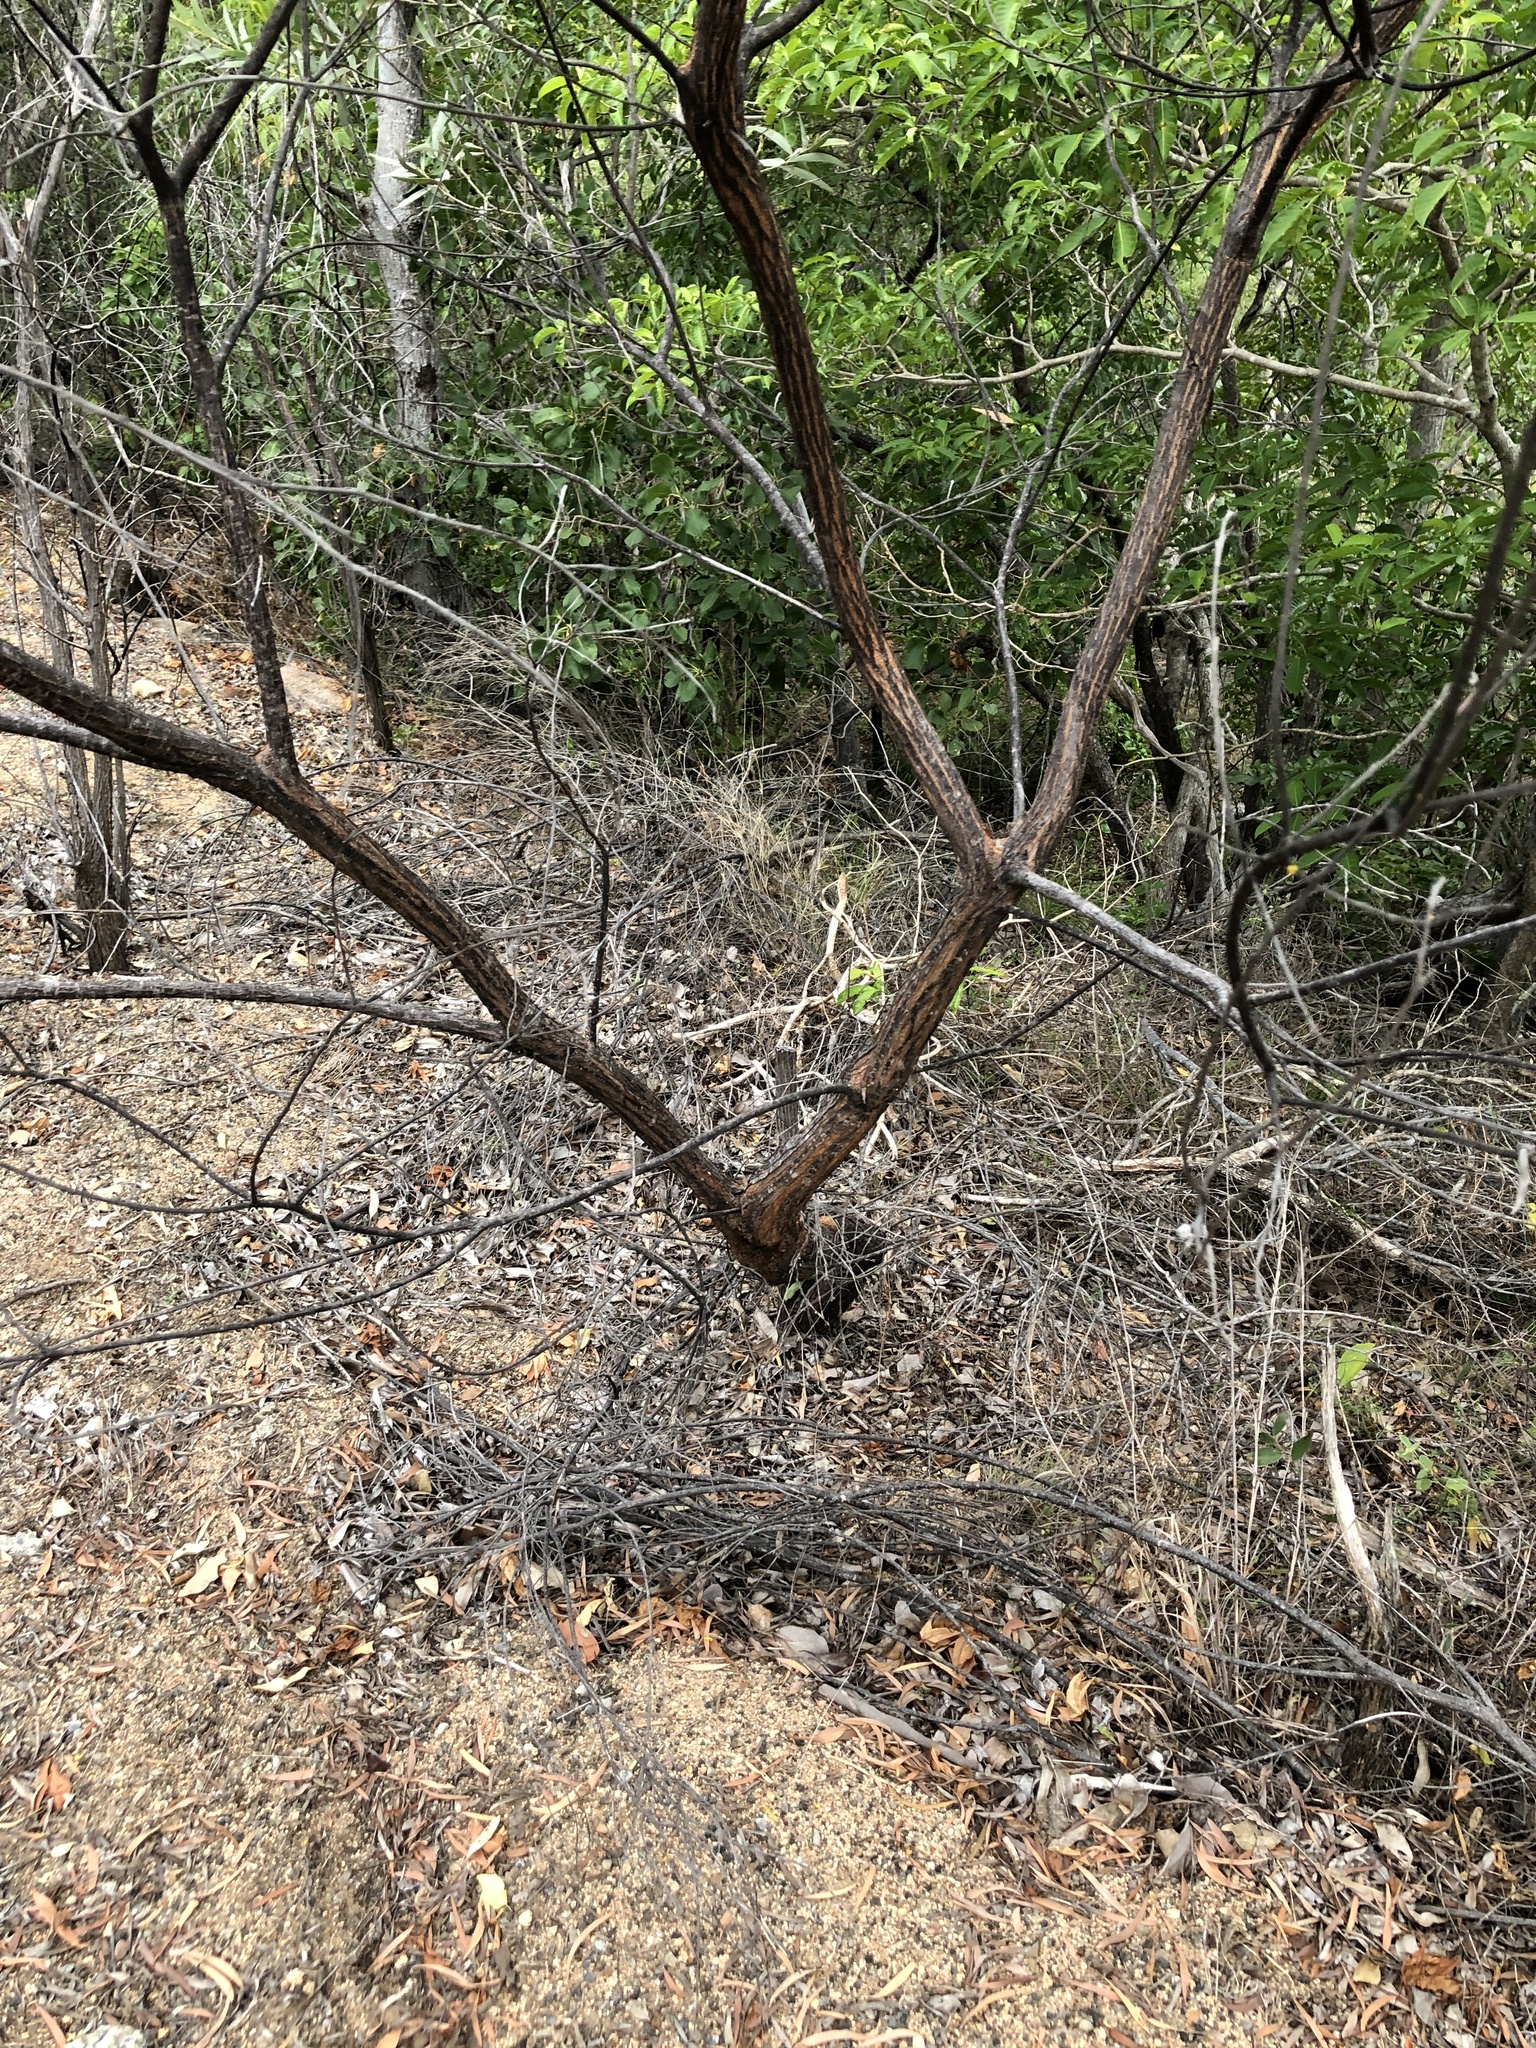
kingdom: Plantae
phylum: Tracheophyta
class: Magnoliopsida
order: Fabales
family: Fabaceae
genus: Acacia
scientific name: Acacia leptostachya
